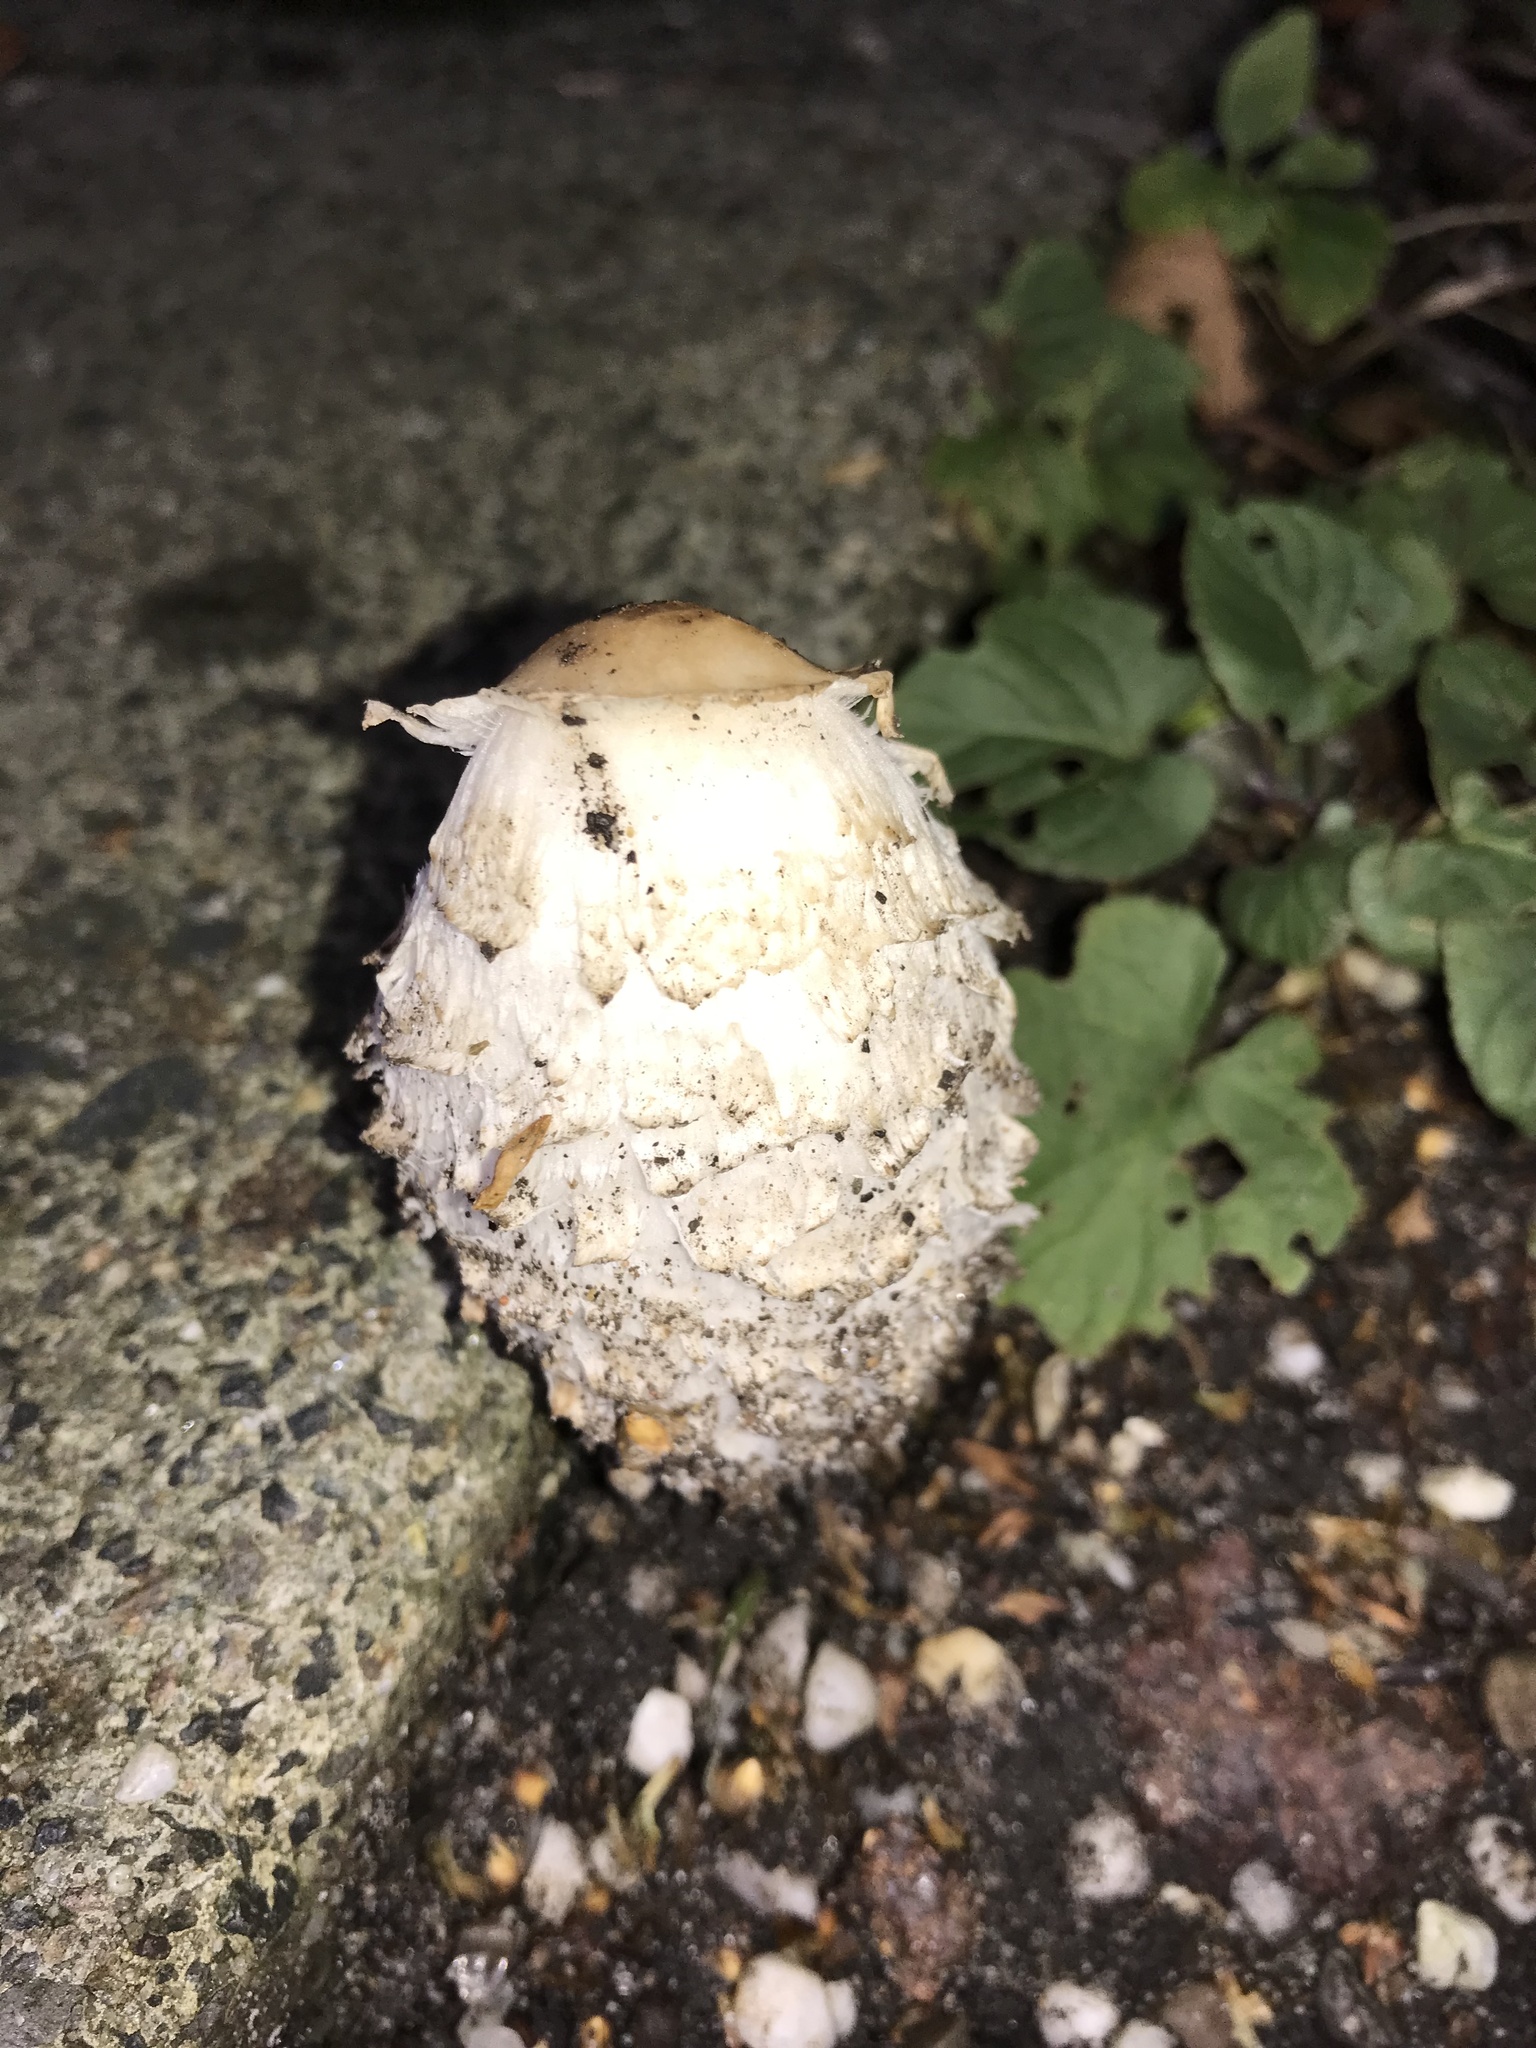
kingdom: Fungi
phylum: Basidiomycota
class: Agaricomycetes
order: Agaricales
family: Agaricaceae
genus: Coprinus
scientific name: Coprinus comatus
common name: Lawyer's wig
